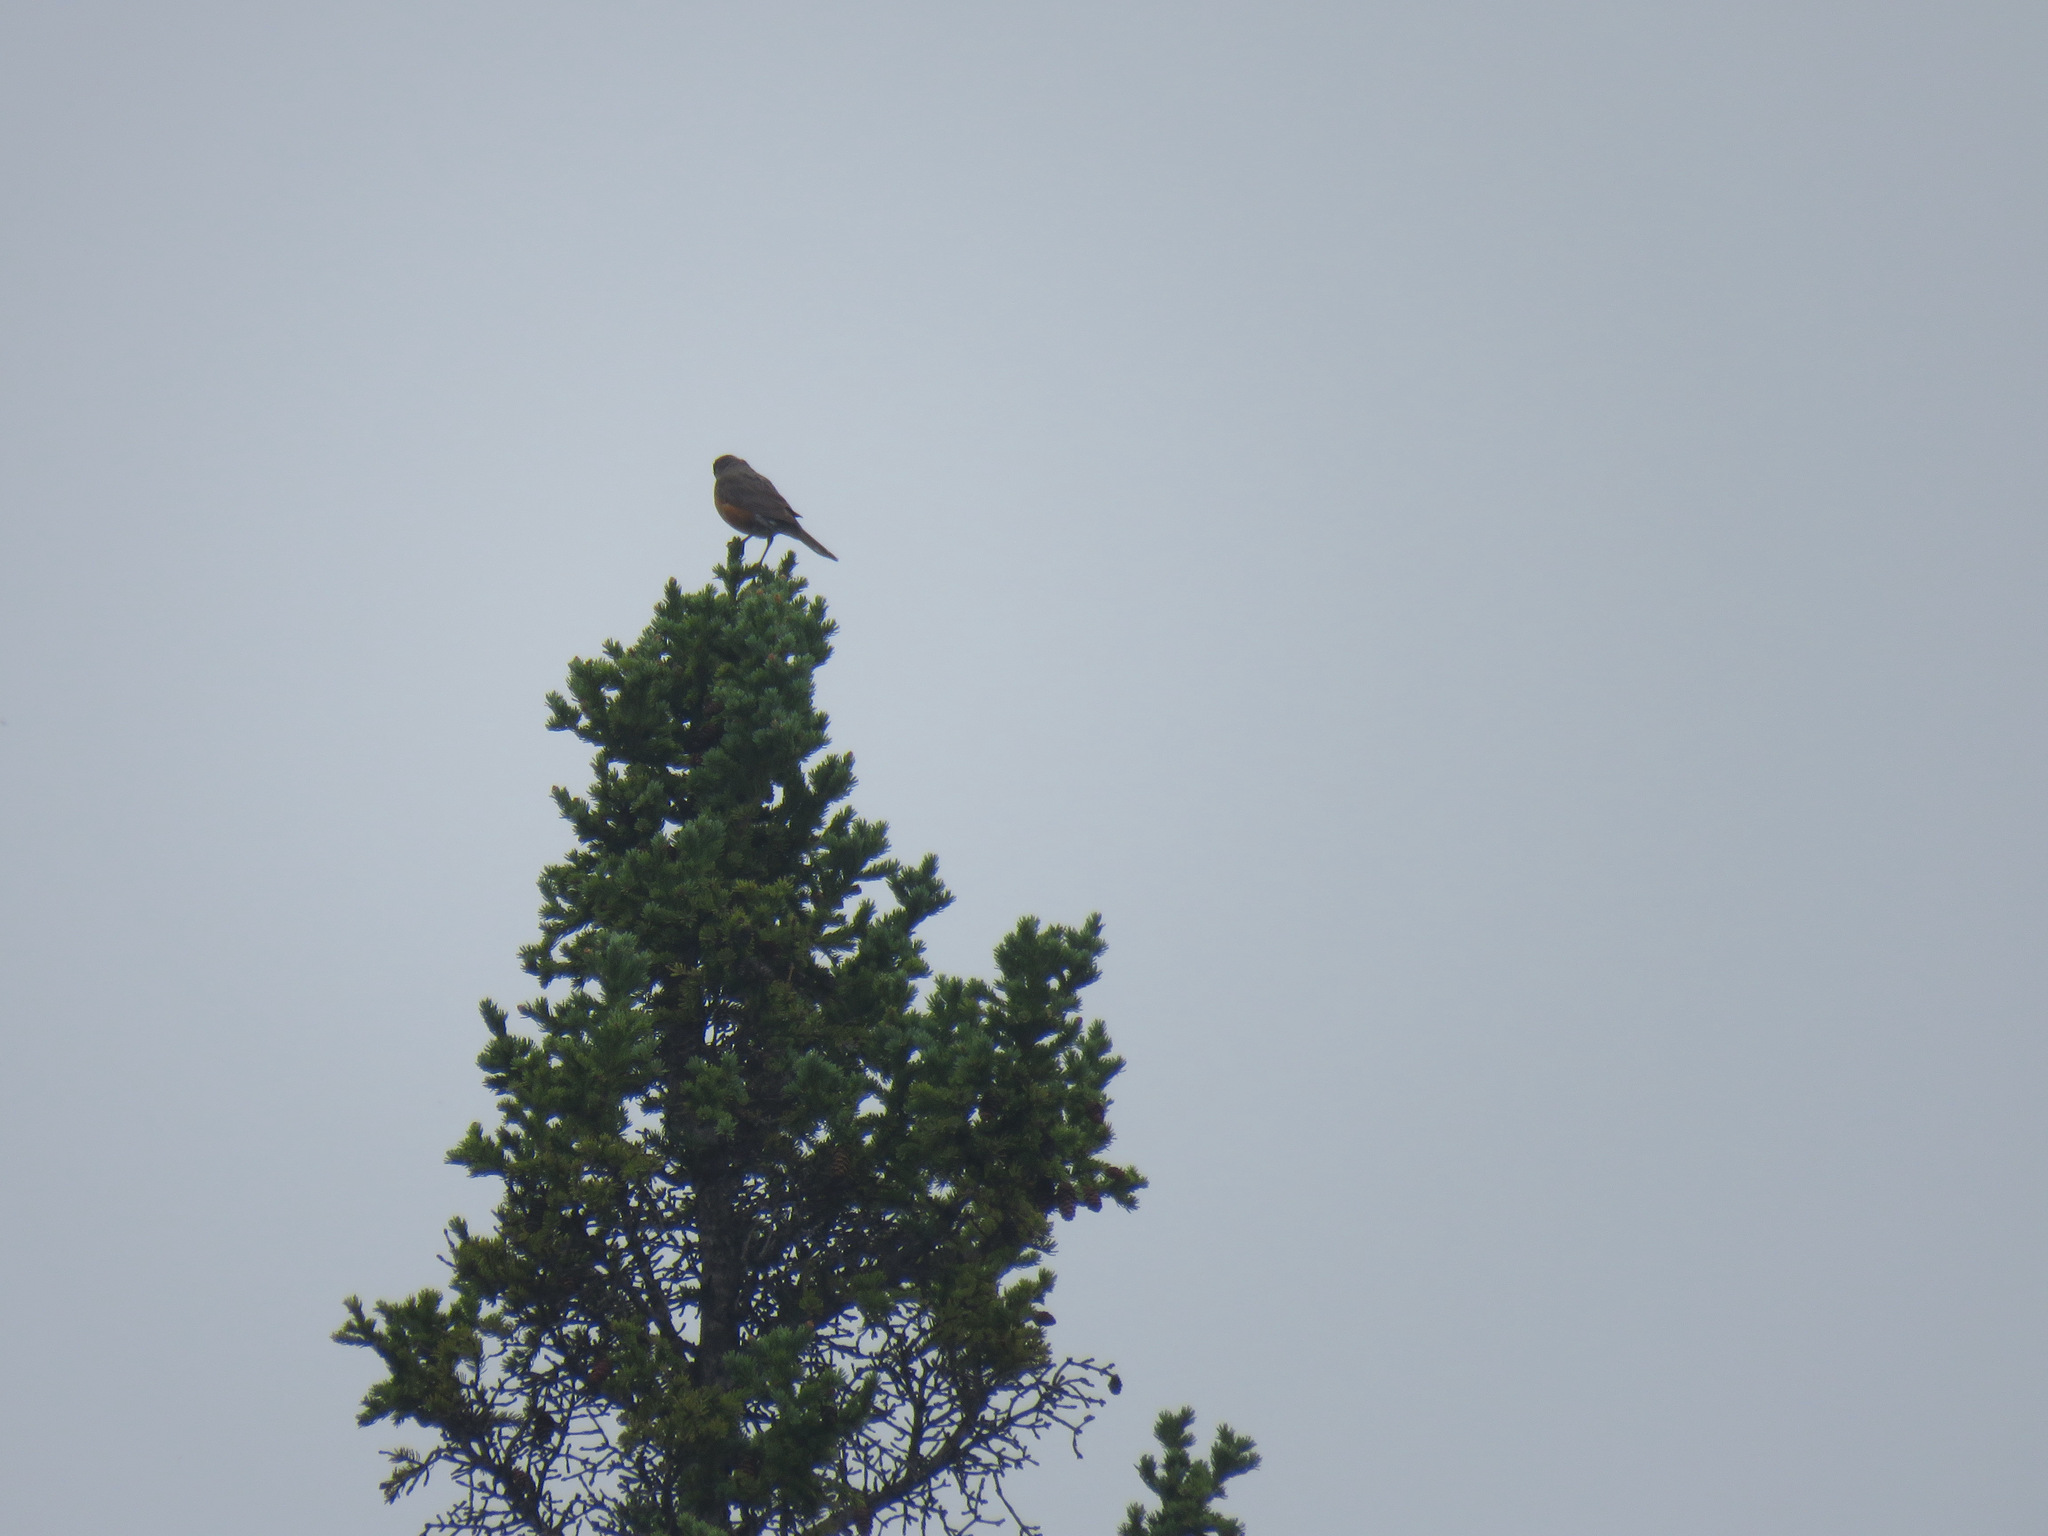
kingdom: Animalia
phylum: Chordata
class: Aves
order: Passeriformes
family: Turdidae
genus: Turdus
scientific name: Turdus migratorius
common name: American robin
